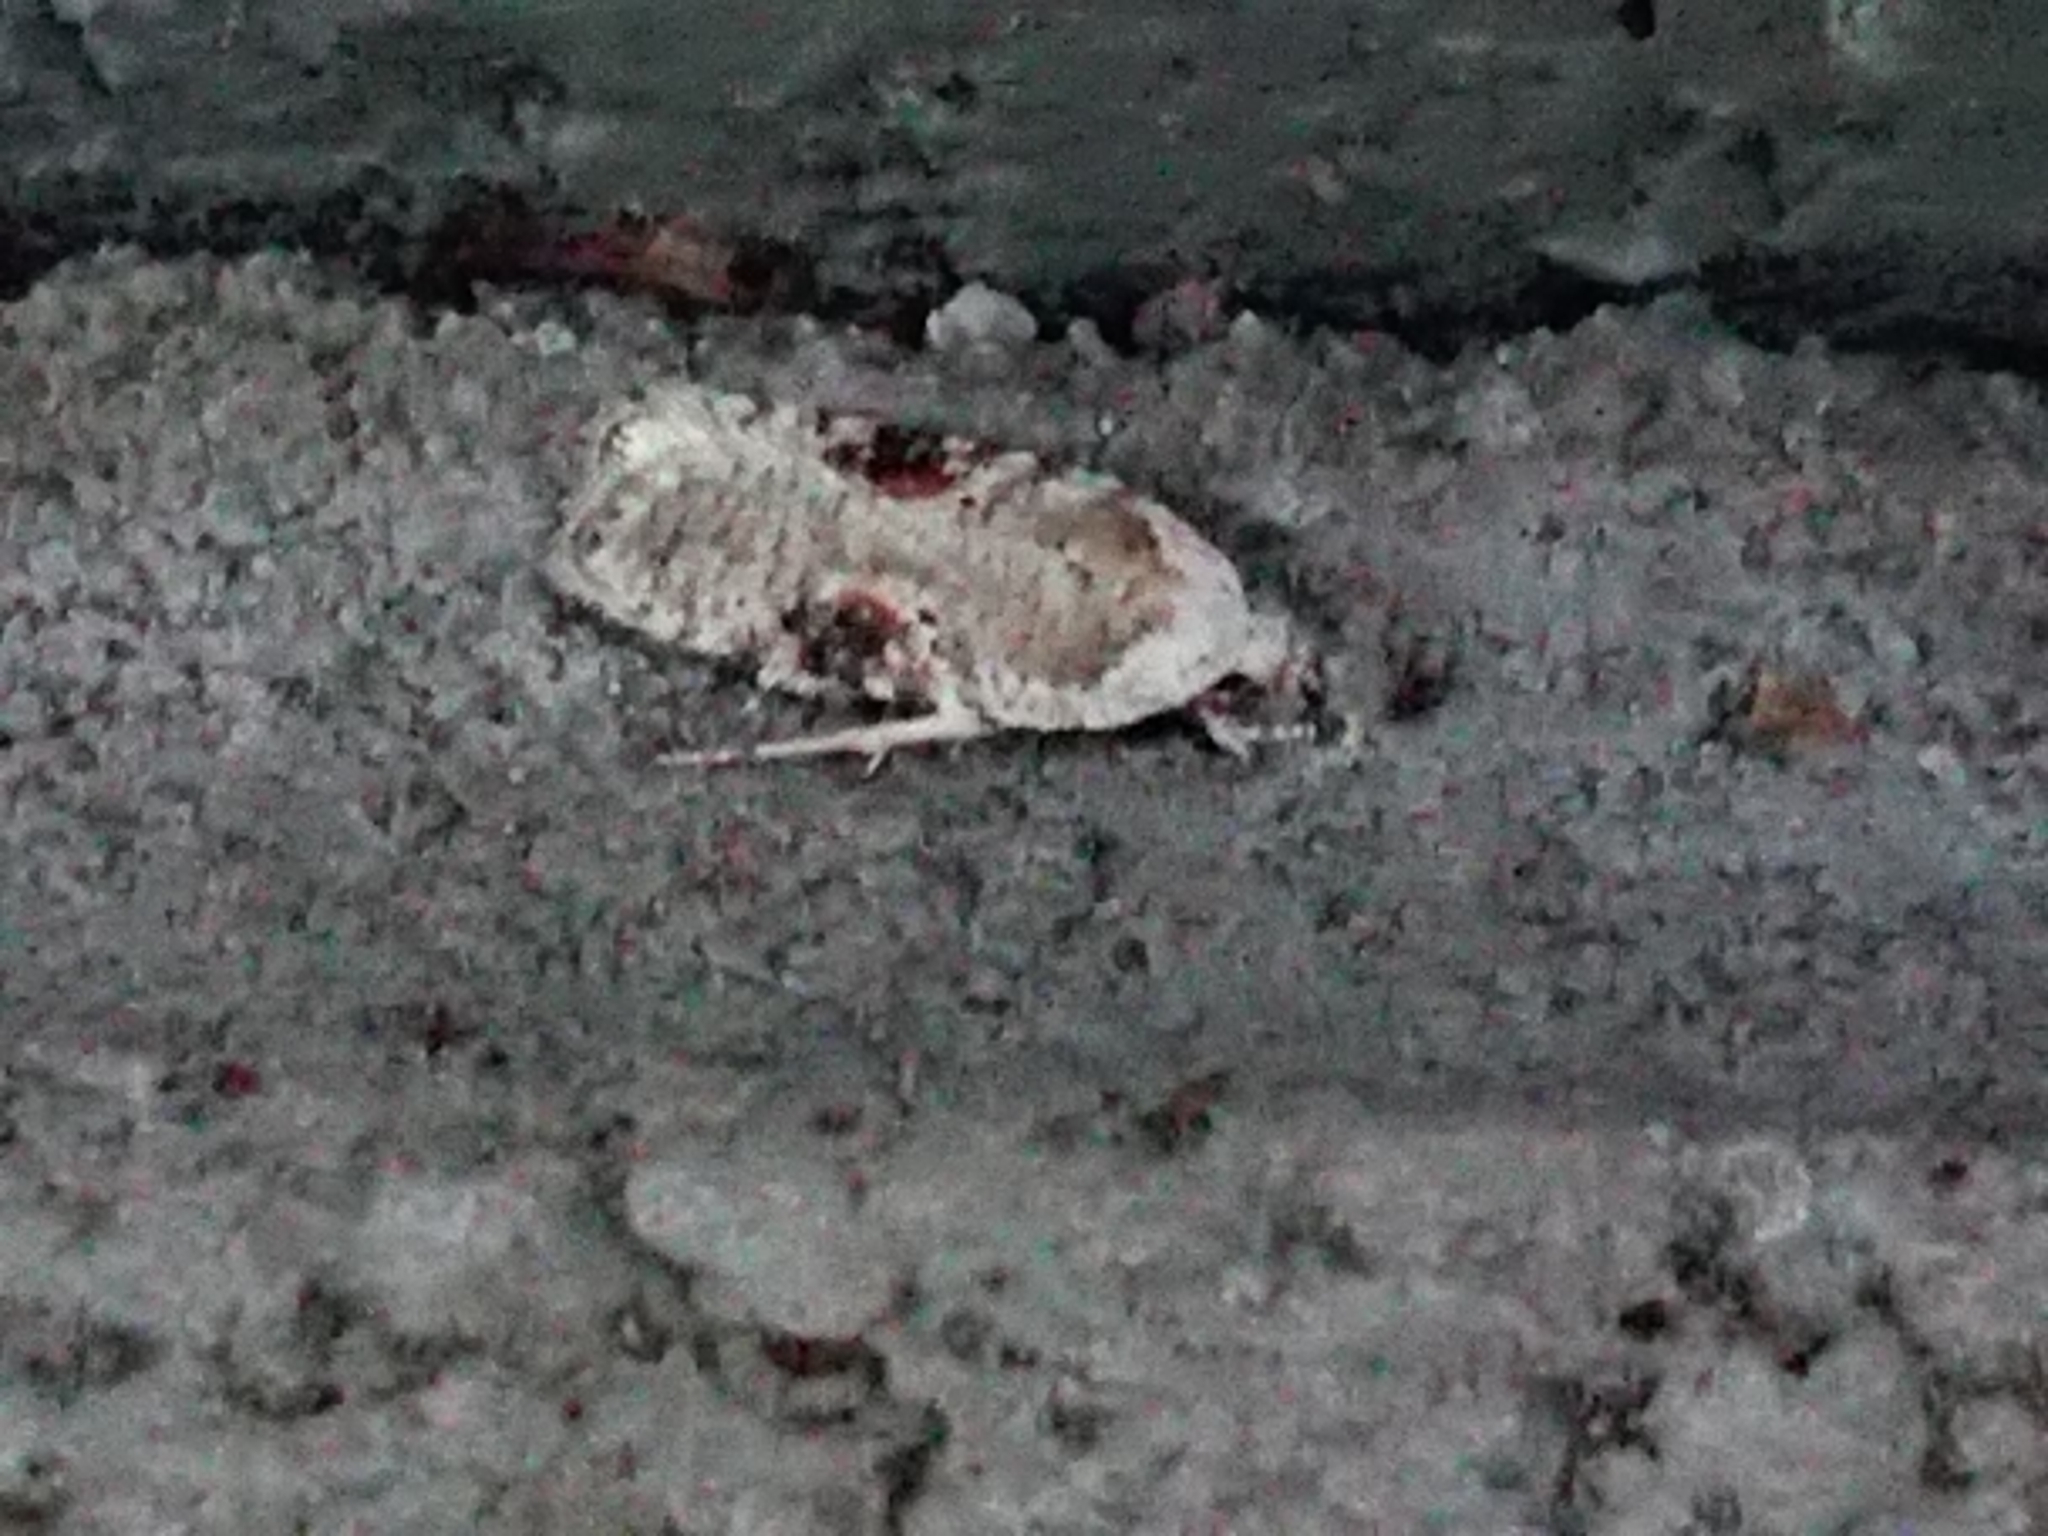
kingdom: Animalia
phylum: Arthropoda
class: Insecta
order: Lepidoptera
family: Depressariidae
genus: Agonopterix
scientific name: Agonopterix alstroemeriana
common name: Moth
